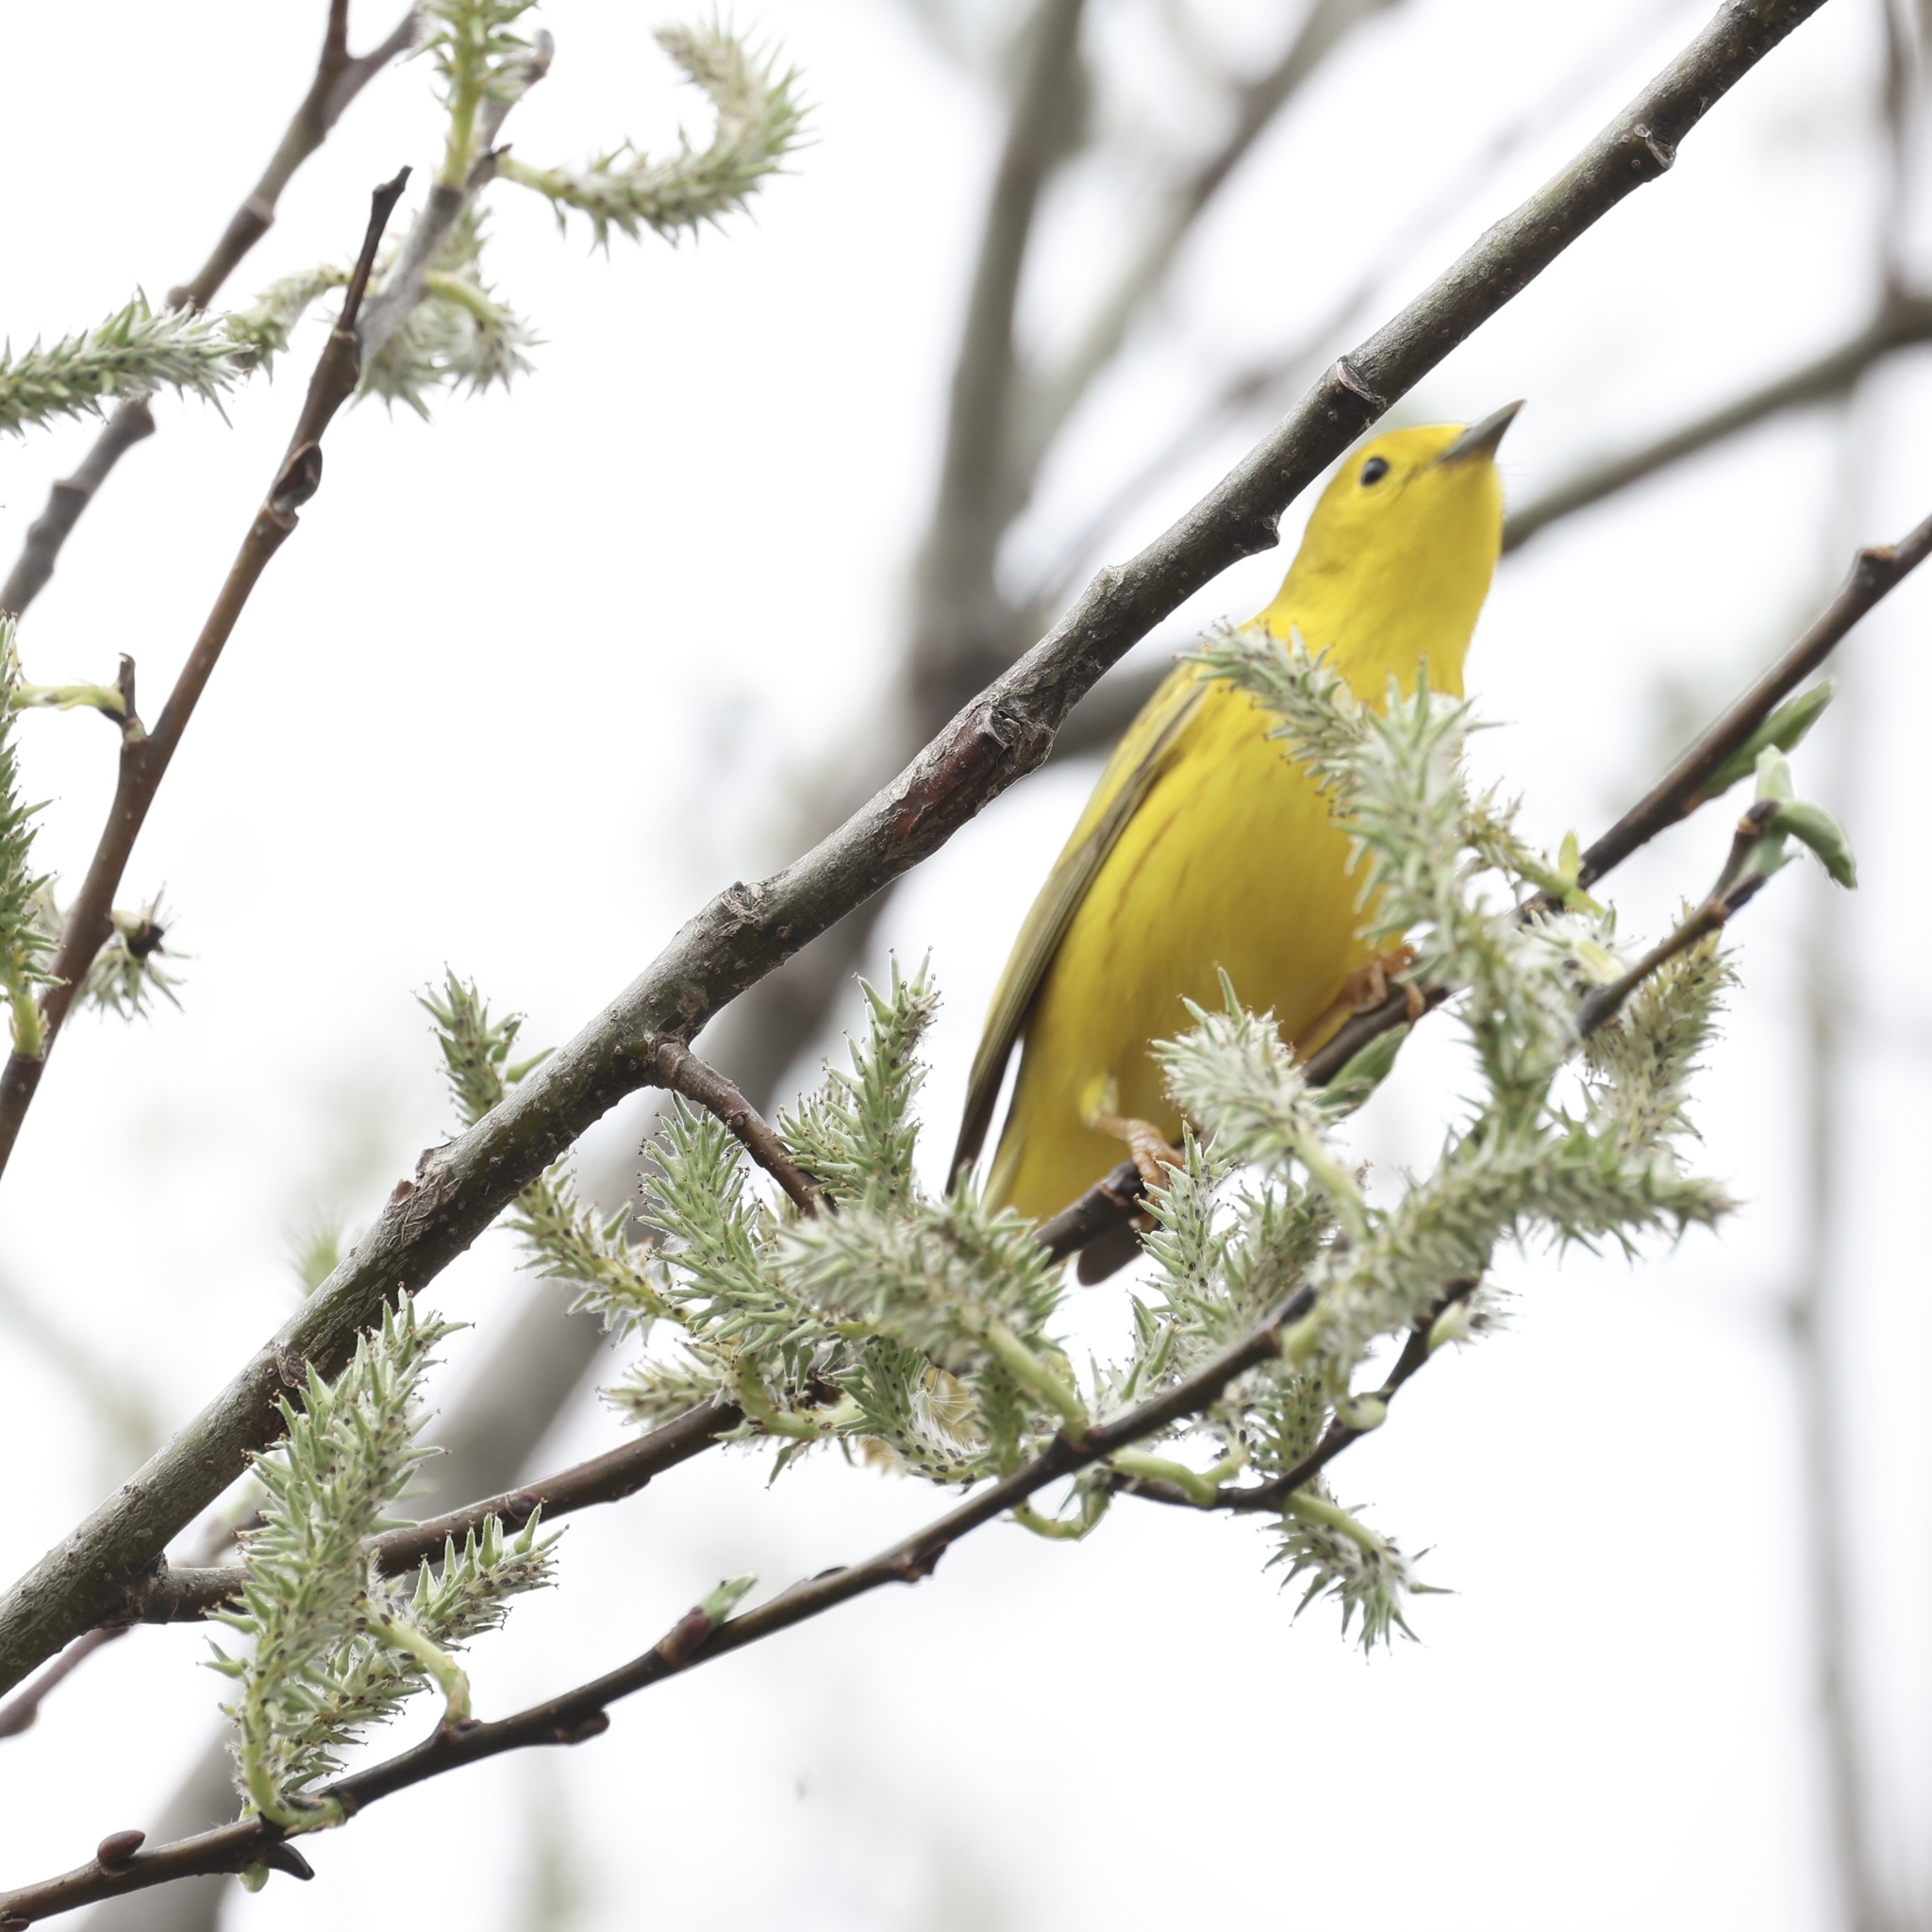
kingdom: Animalia
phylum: Chordata
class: Aves
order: Passeriformes
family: Parulidae
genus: Setophaga
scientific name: Setophaga petechia
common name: Yellow warbler
